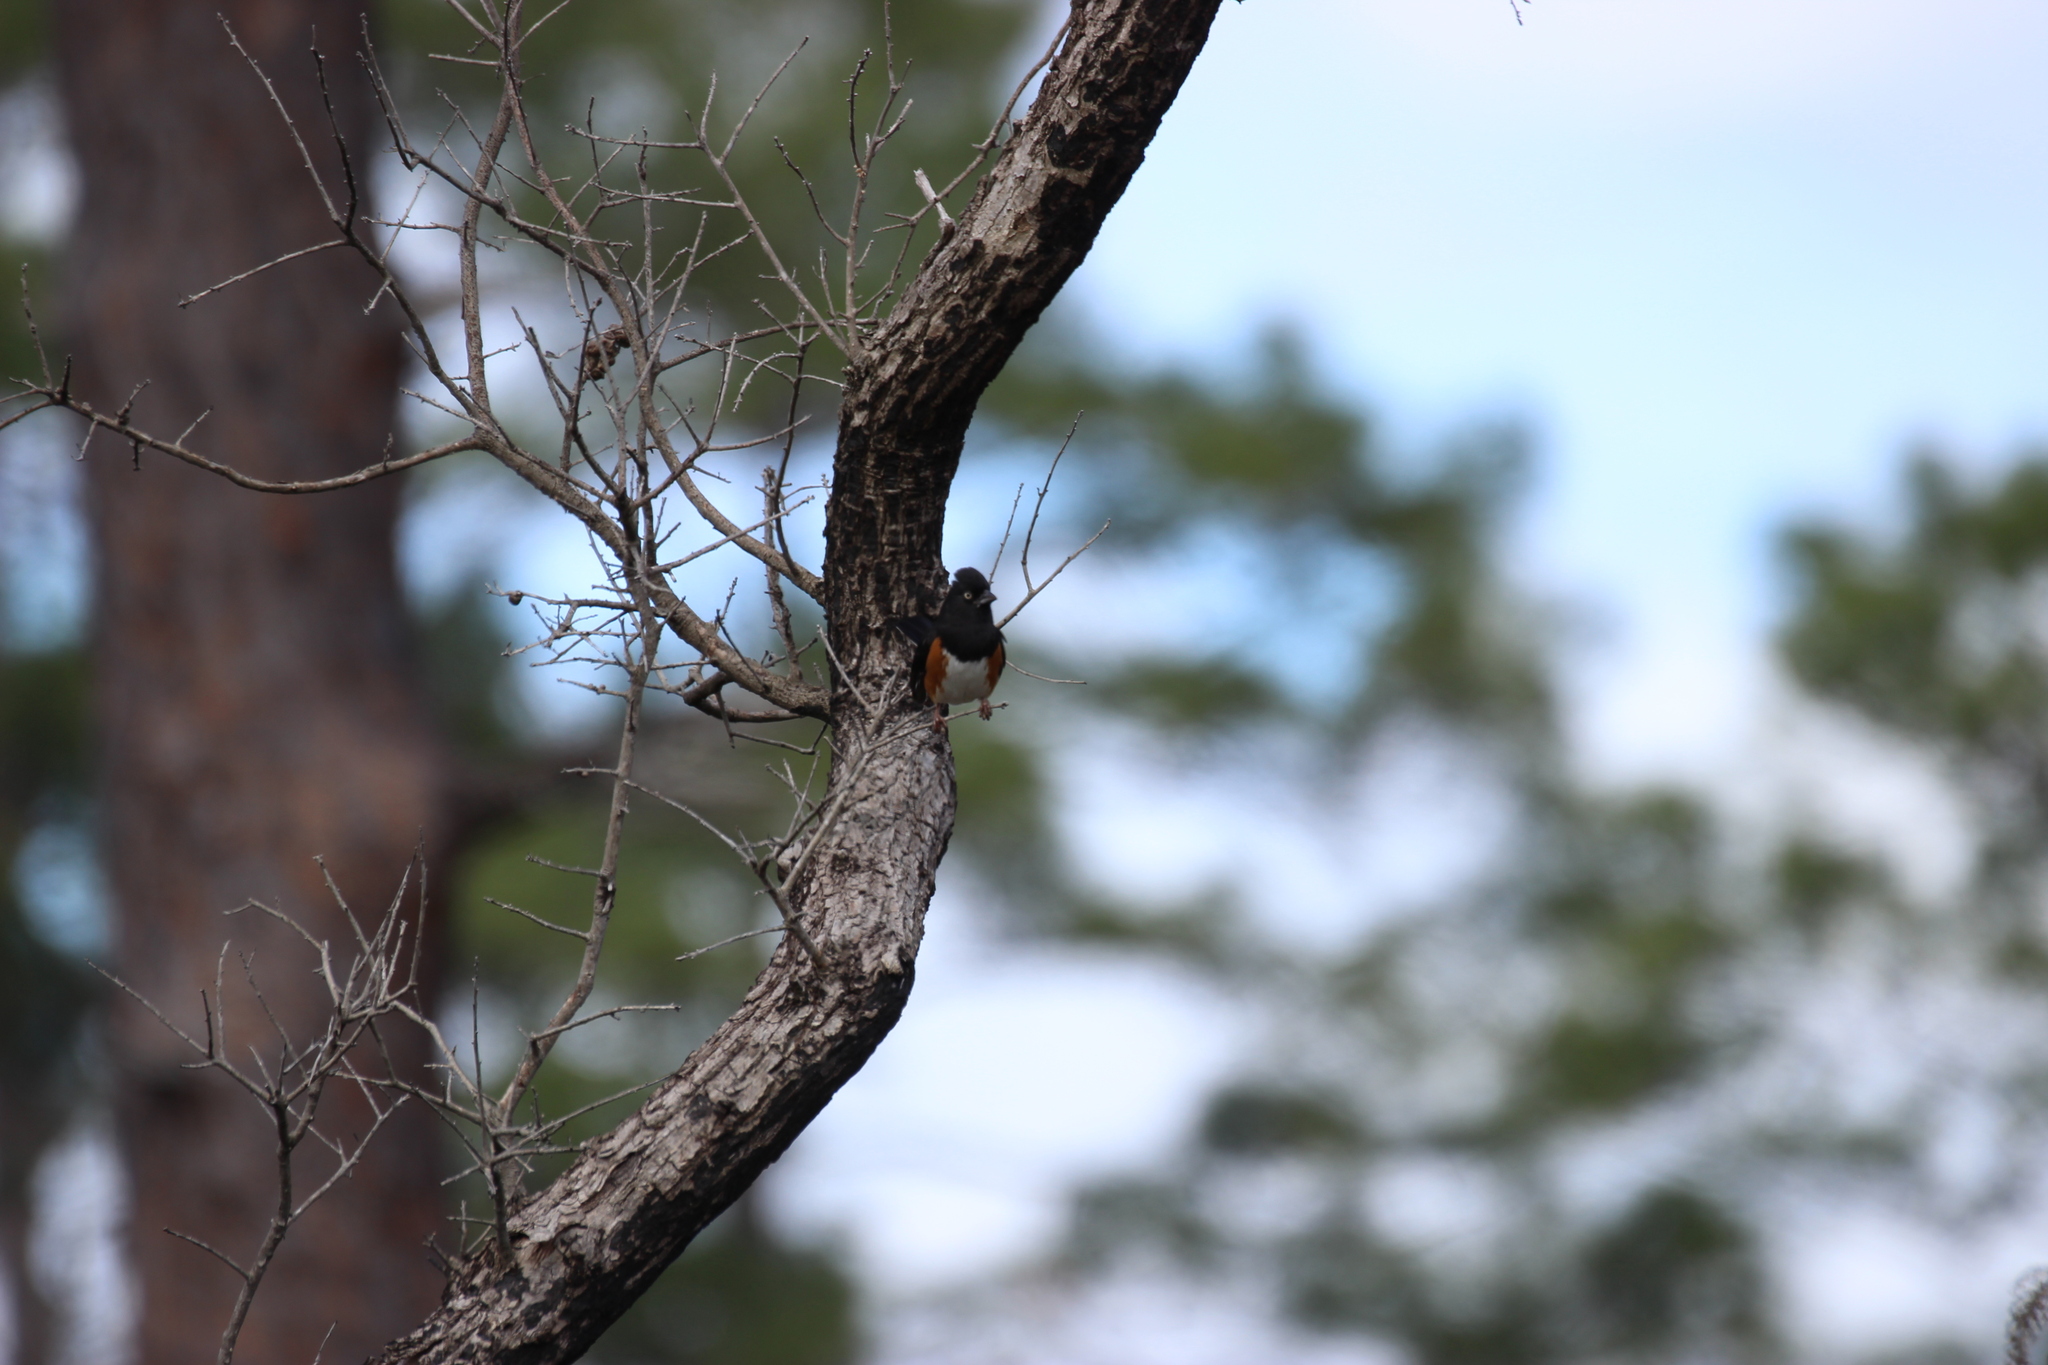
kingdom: Animalia
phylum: Chordata
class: Aves
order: Passeriformes
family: Passerellidae
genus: Pipilo
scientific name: Pipilo erythrophthalmus
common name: Eastern towhee
